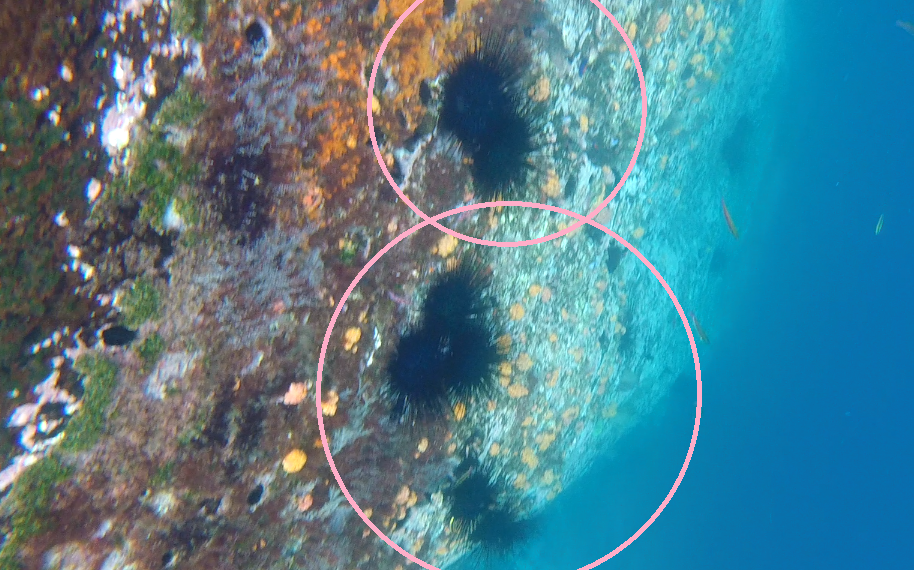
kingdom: Animalia
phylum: Echinodermata
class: Echinoidea
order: Diadematoida
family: Diadematidae
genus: Diadema
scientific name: Diadema mexicanum
